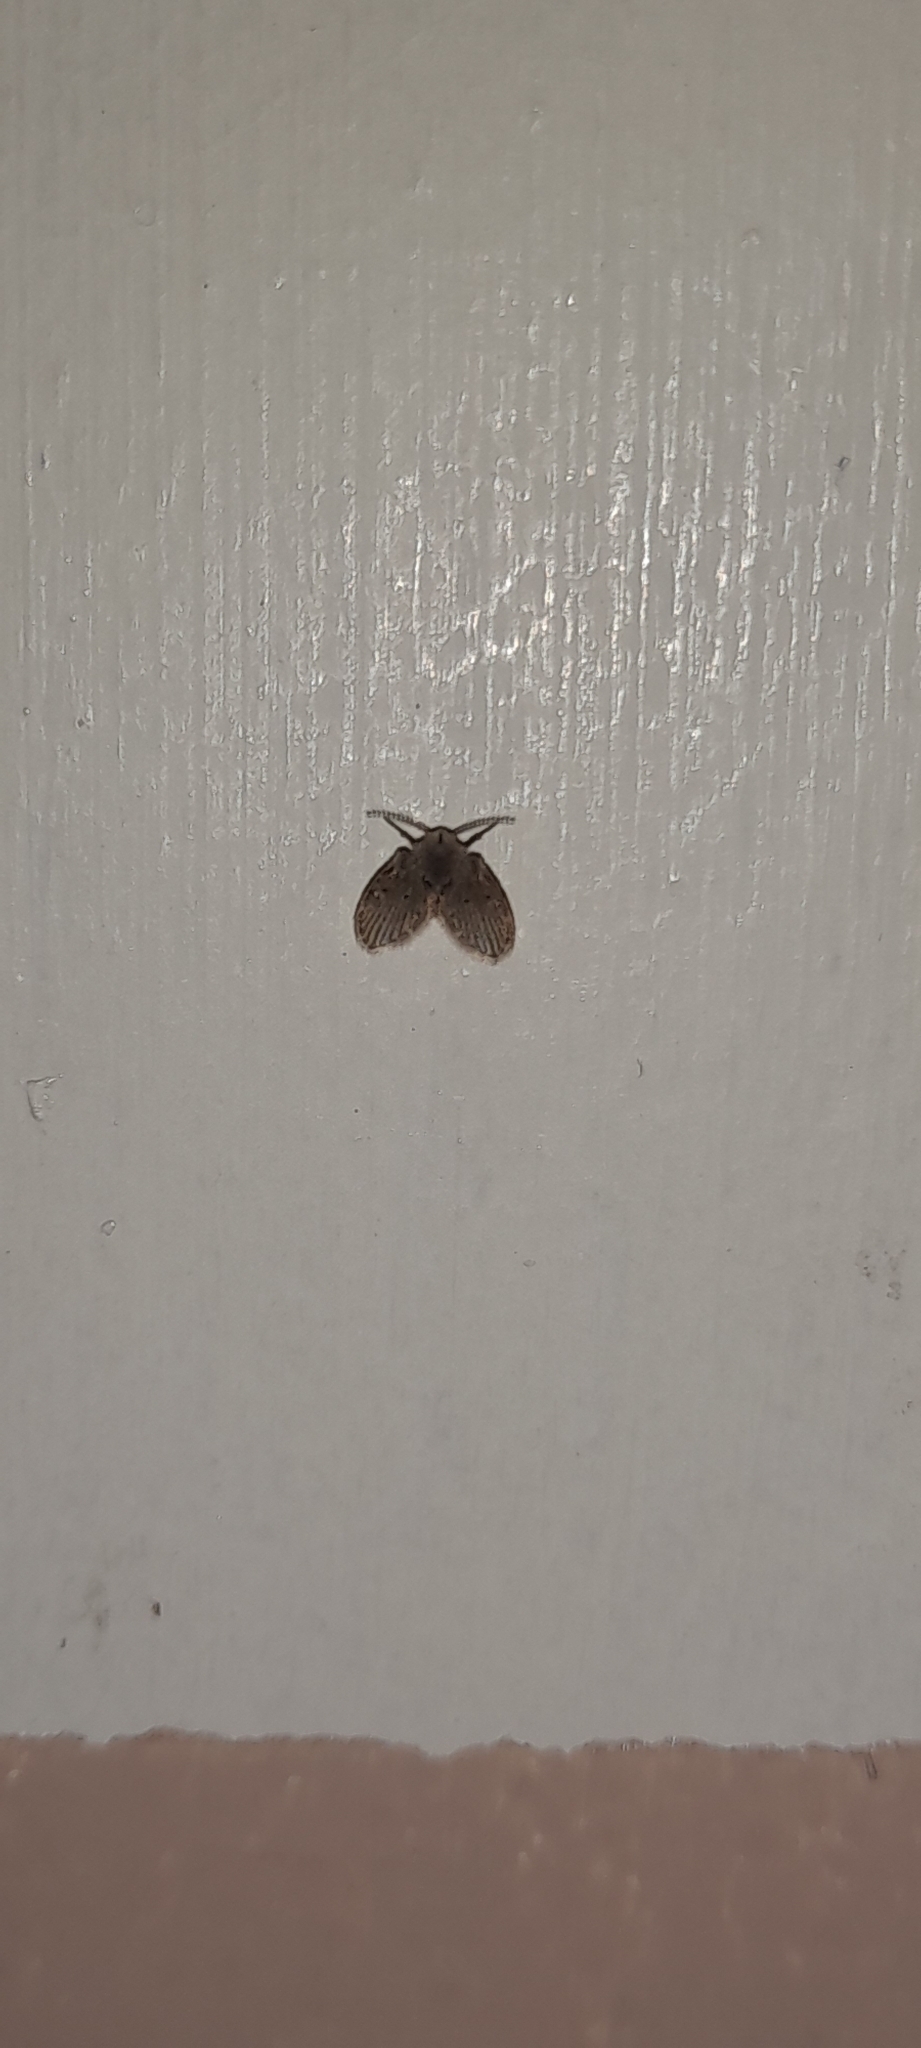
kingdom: Animalia
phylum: Arthropoda
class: Insecta
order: Diptera
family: Psychodidae
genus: Clogmia
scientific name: Clogmia albipunctatus
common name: White-spotted moth fly
